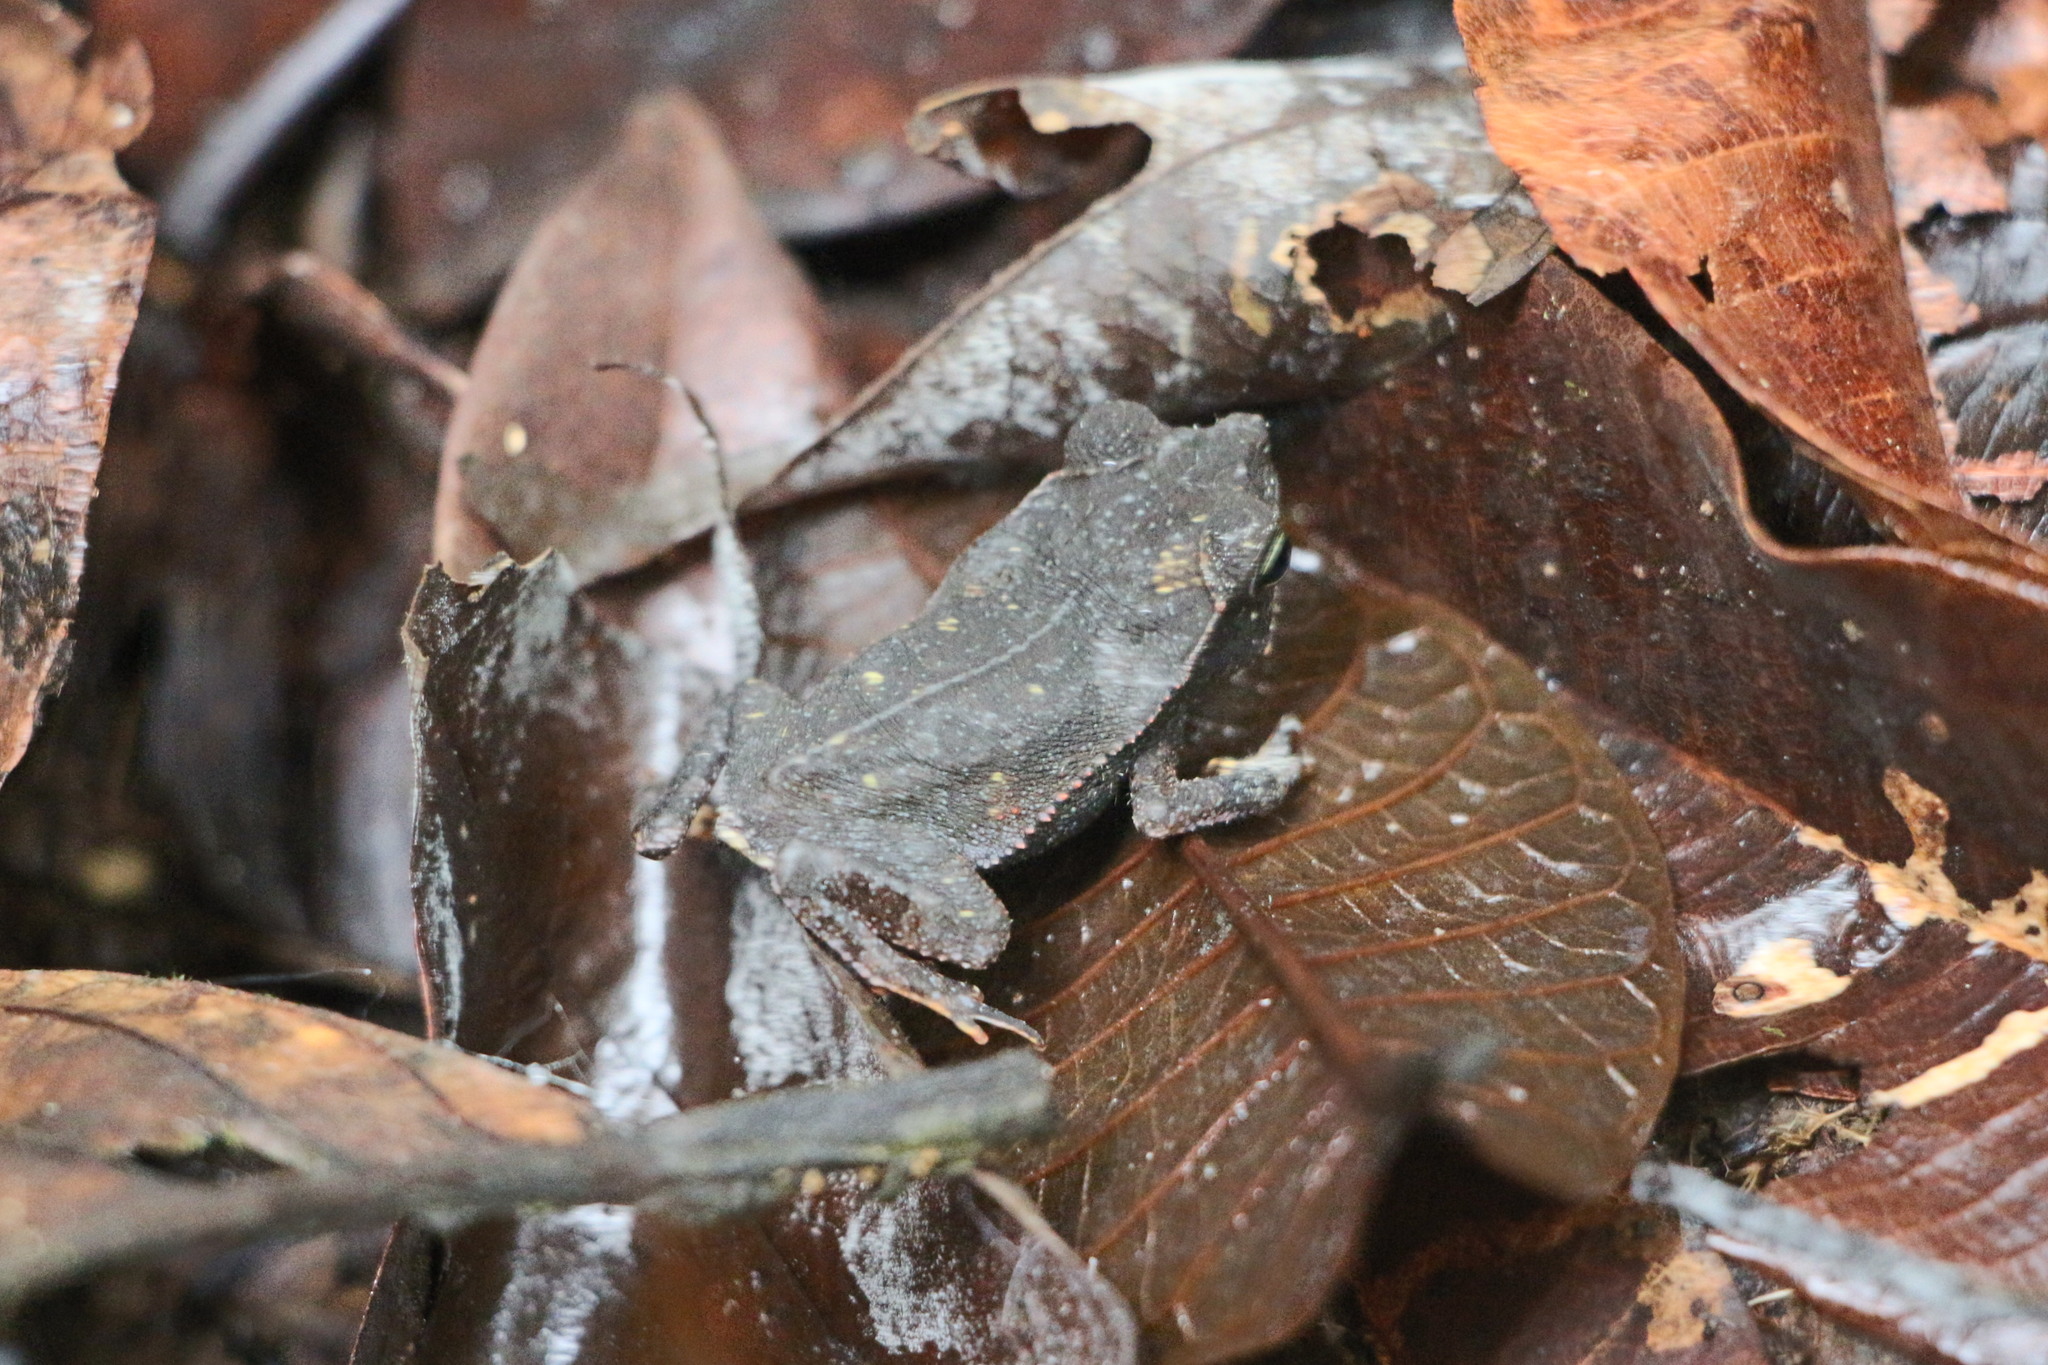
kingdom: Animalia
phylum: Chordata
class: Amphibia
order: Anura
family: Bufonidae
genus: Rhinella
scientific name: Rhinella margaritifera
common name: Mitred toad
